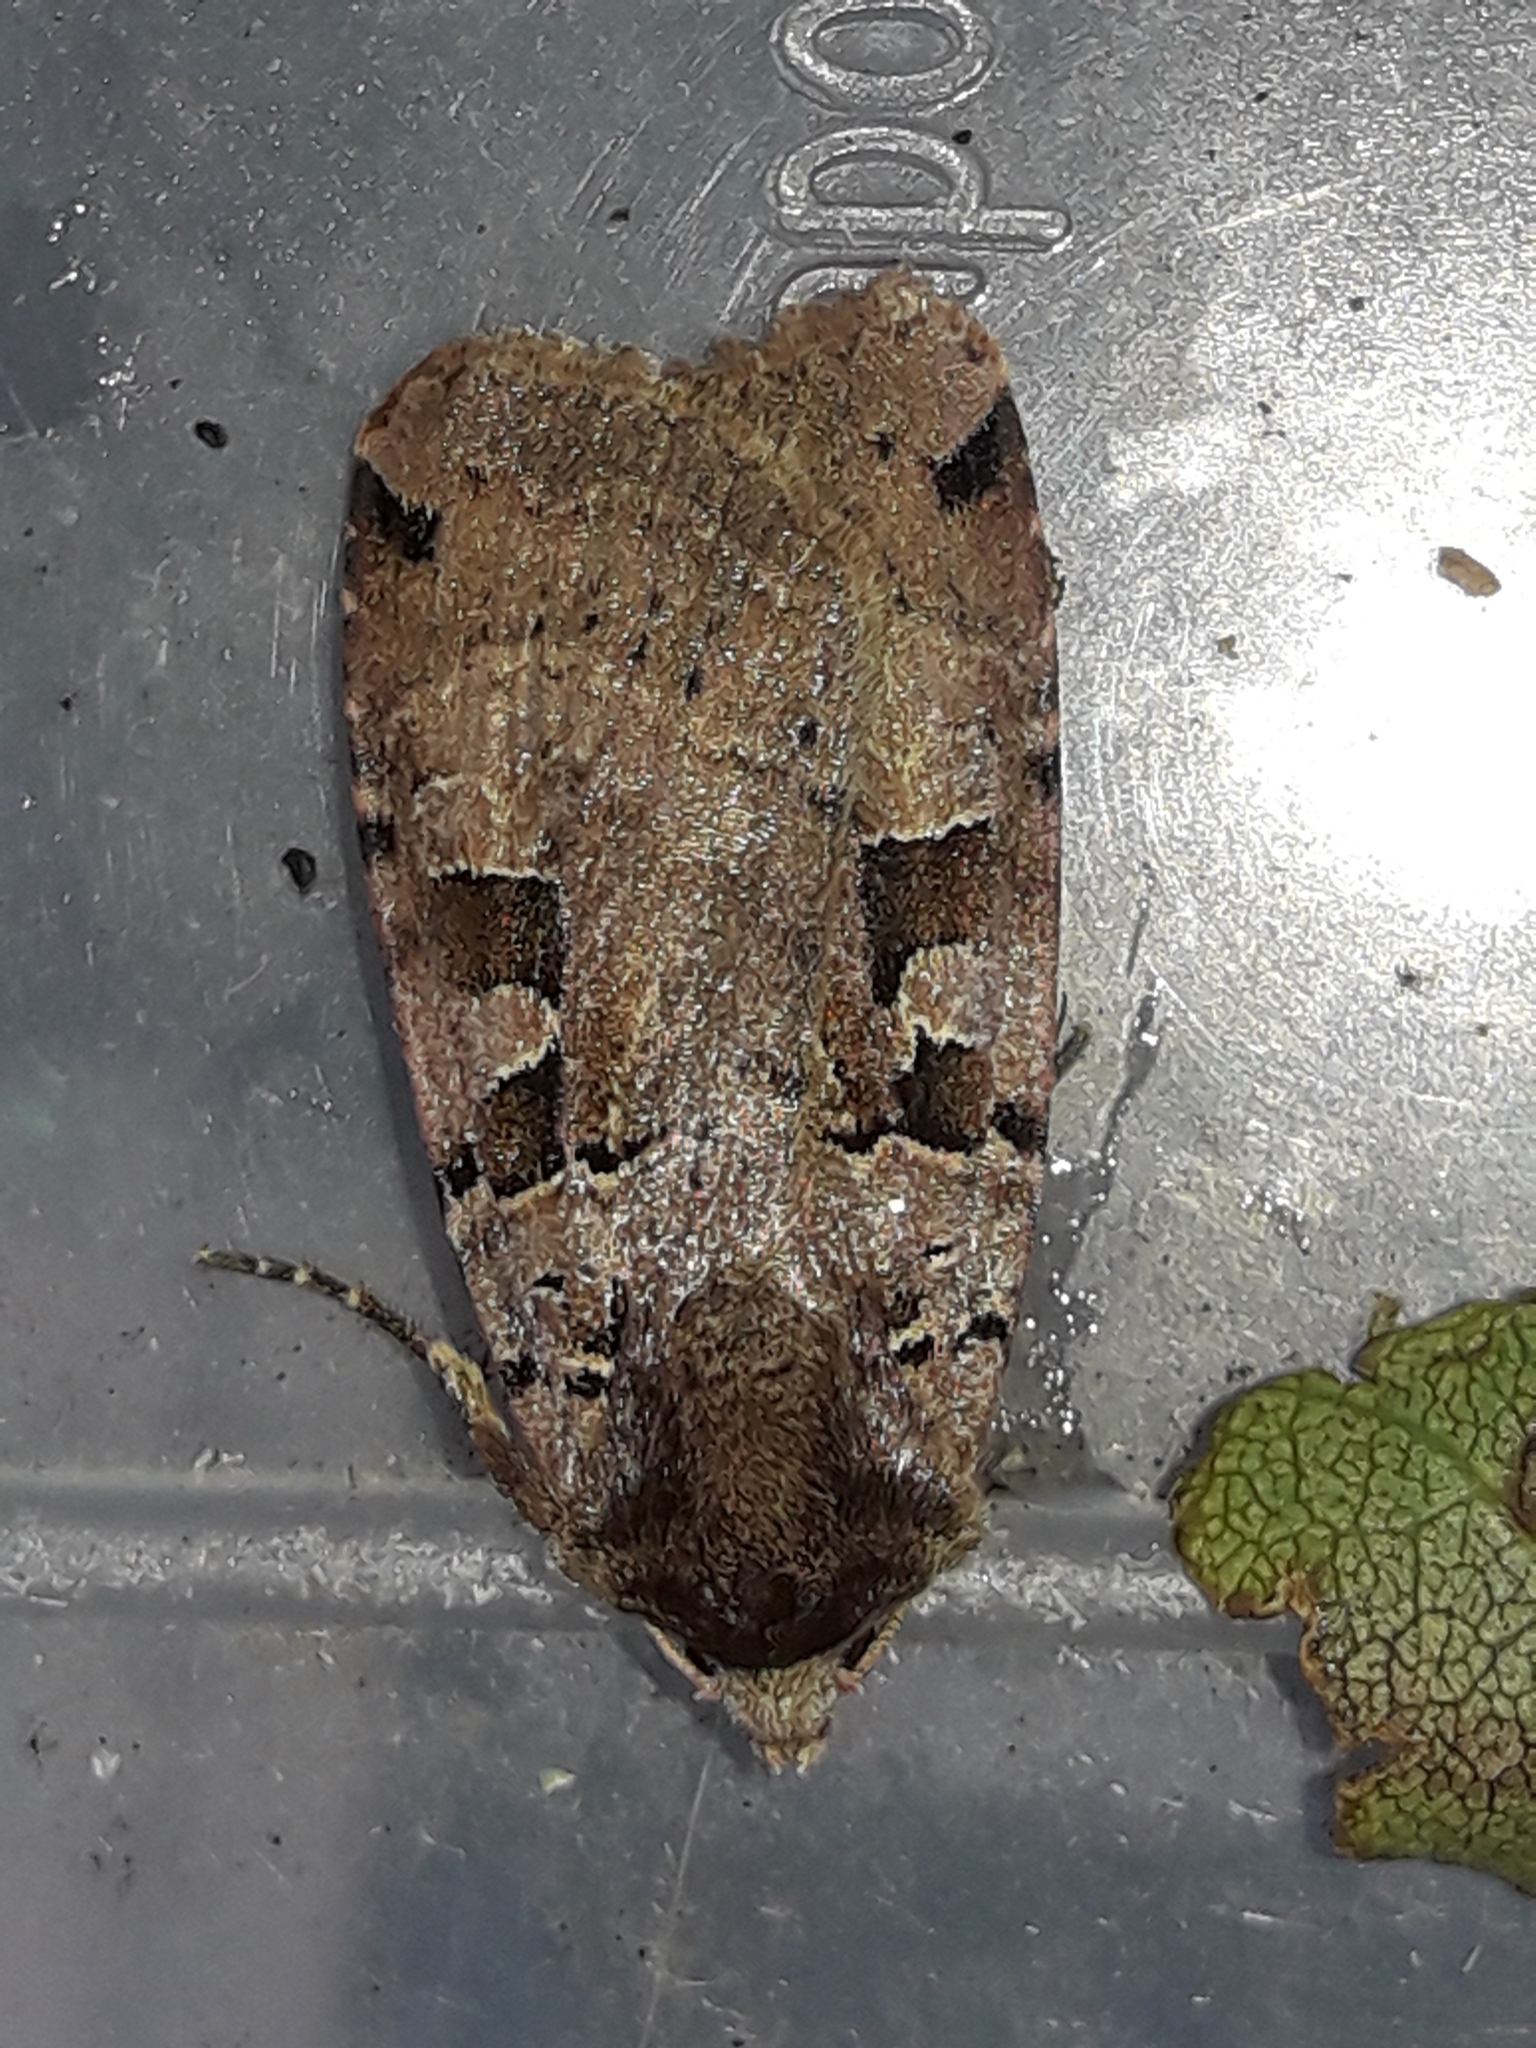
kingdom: Animalia
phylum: Arthropoda
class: Insecta
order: Lepidoptera
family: Noctuidae
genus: Xestia
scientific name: Xestia triangulum
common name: Double square-spot
